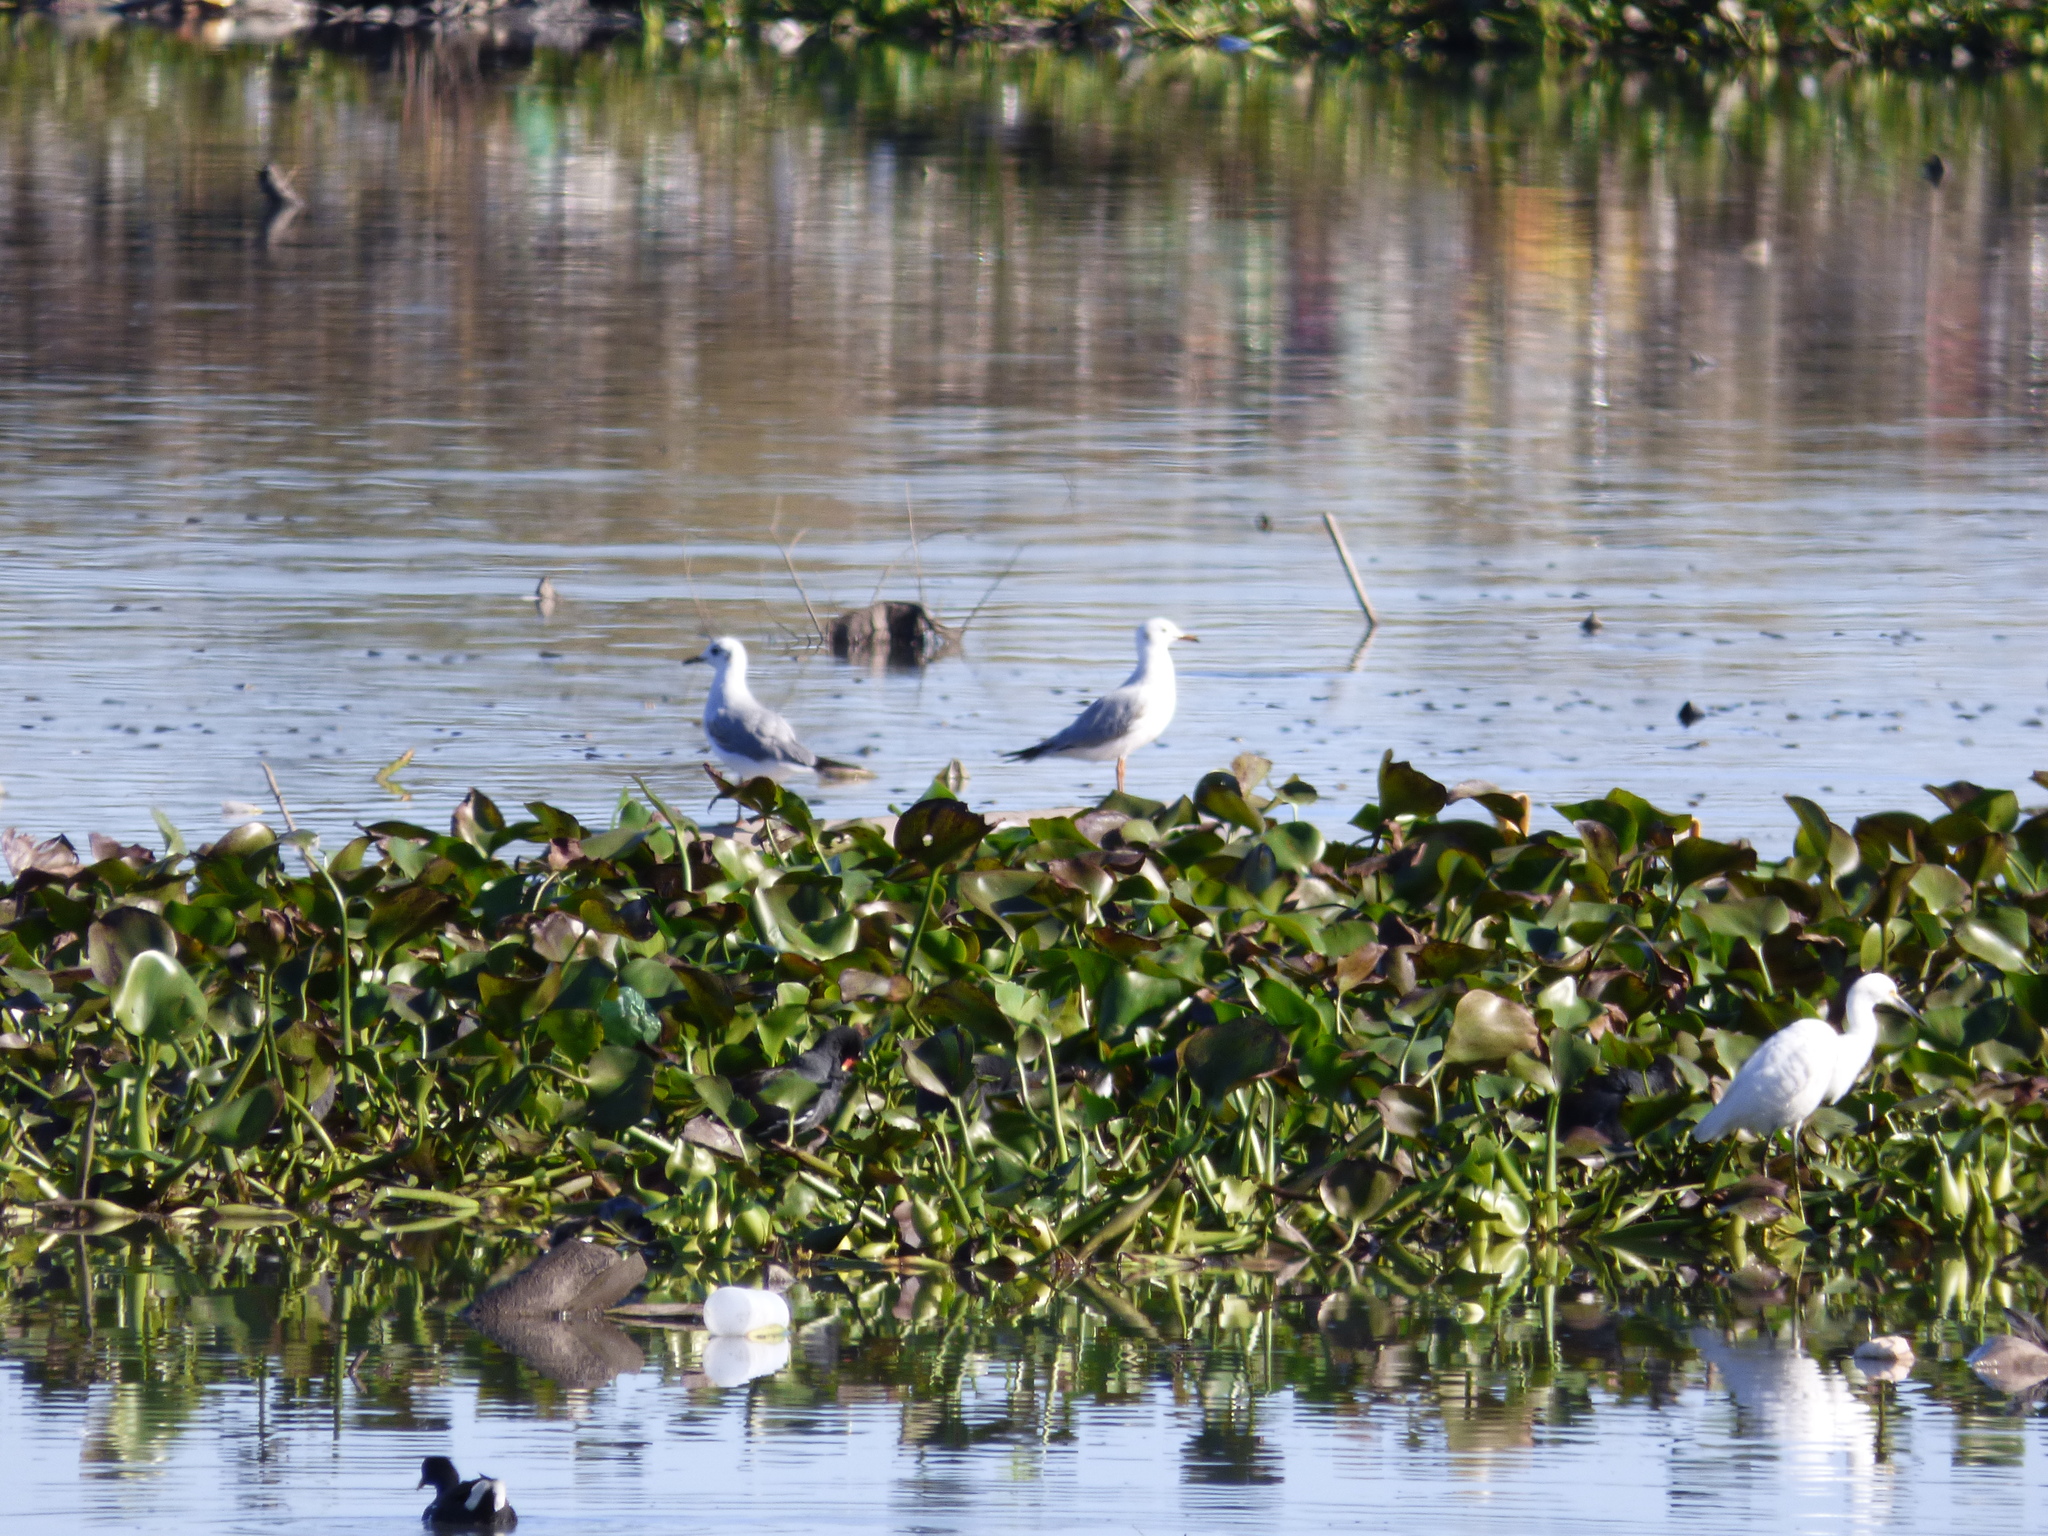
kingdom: Animalia
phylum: Chordata
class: Aves
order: Charadriiformes
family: Laridae
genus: Chroicocephalus
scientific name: Chroicocephalus maculipennis
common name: Brown-hooded gull
